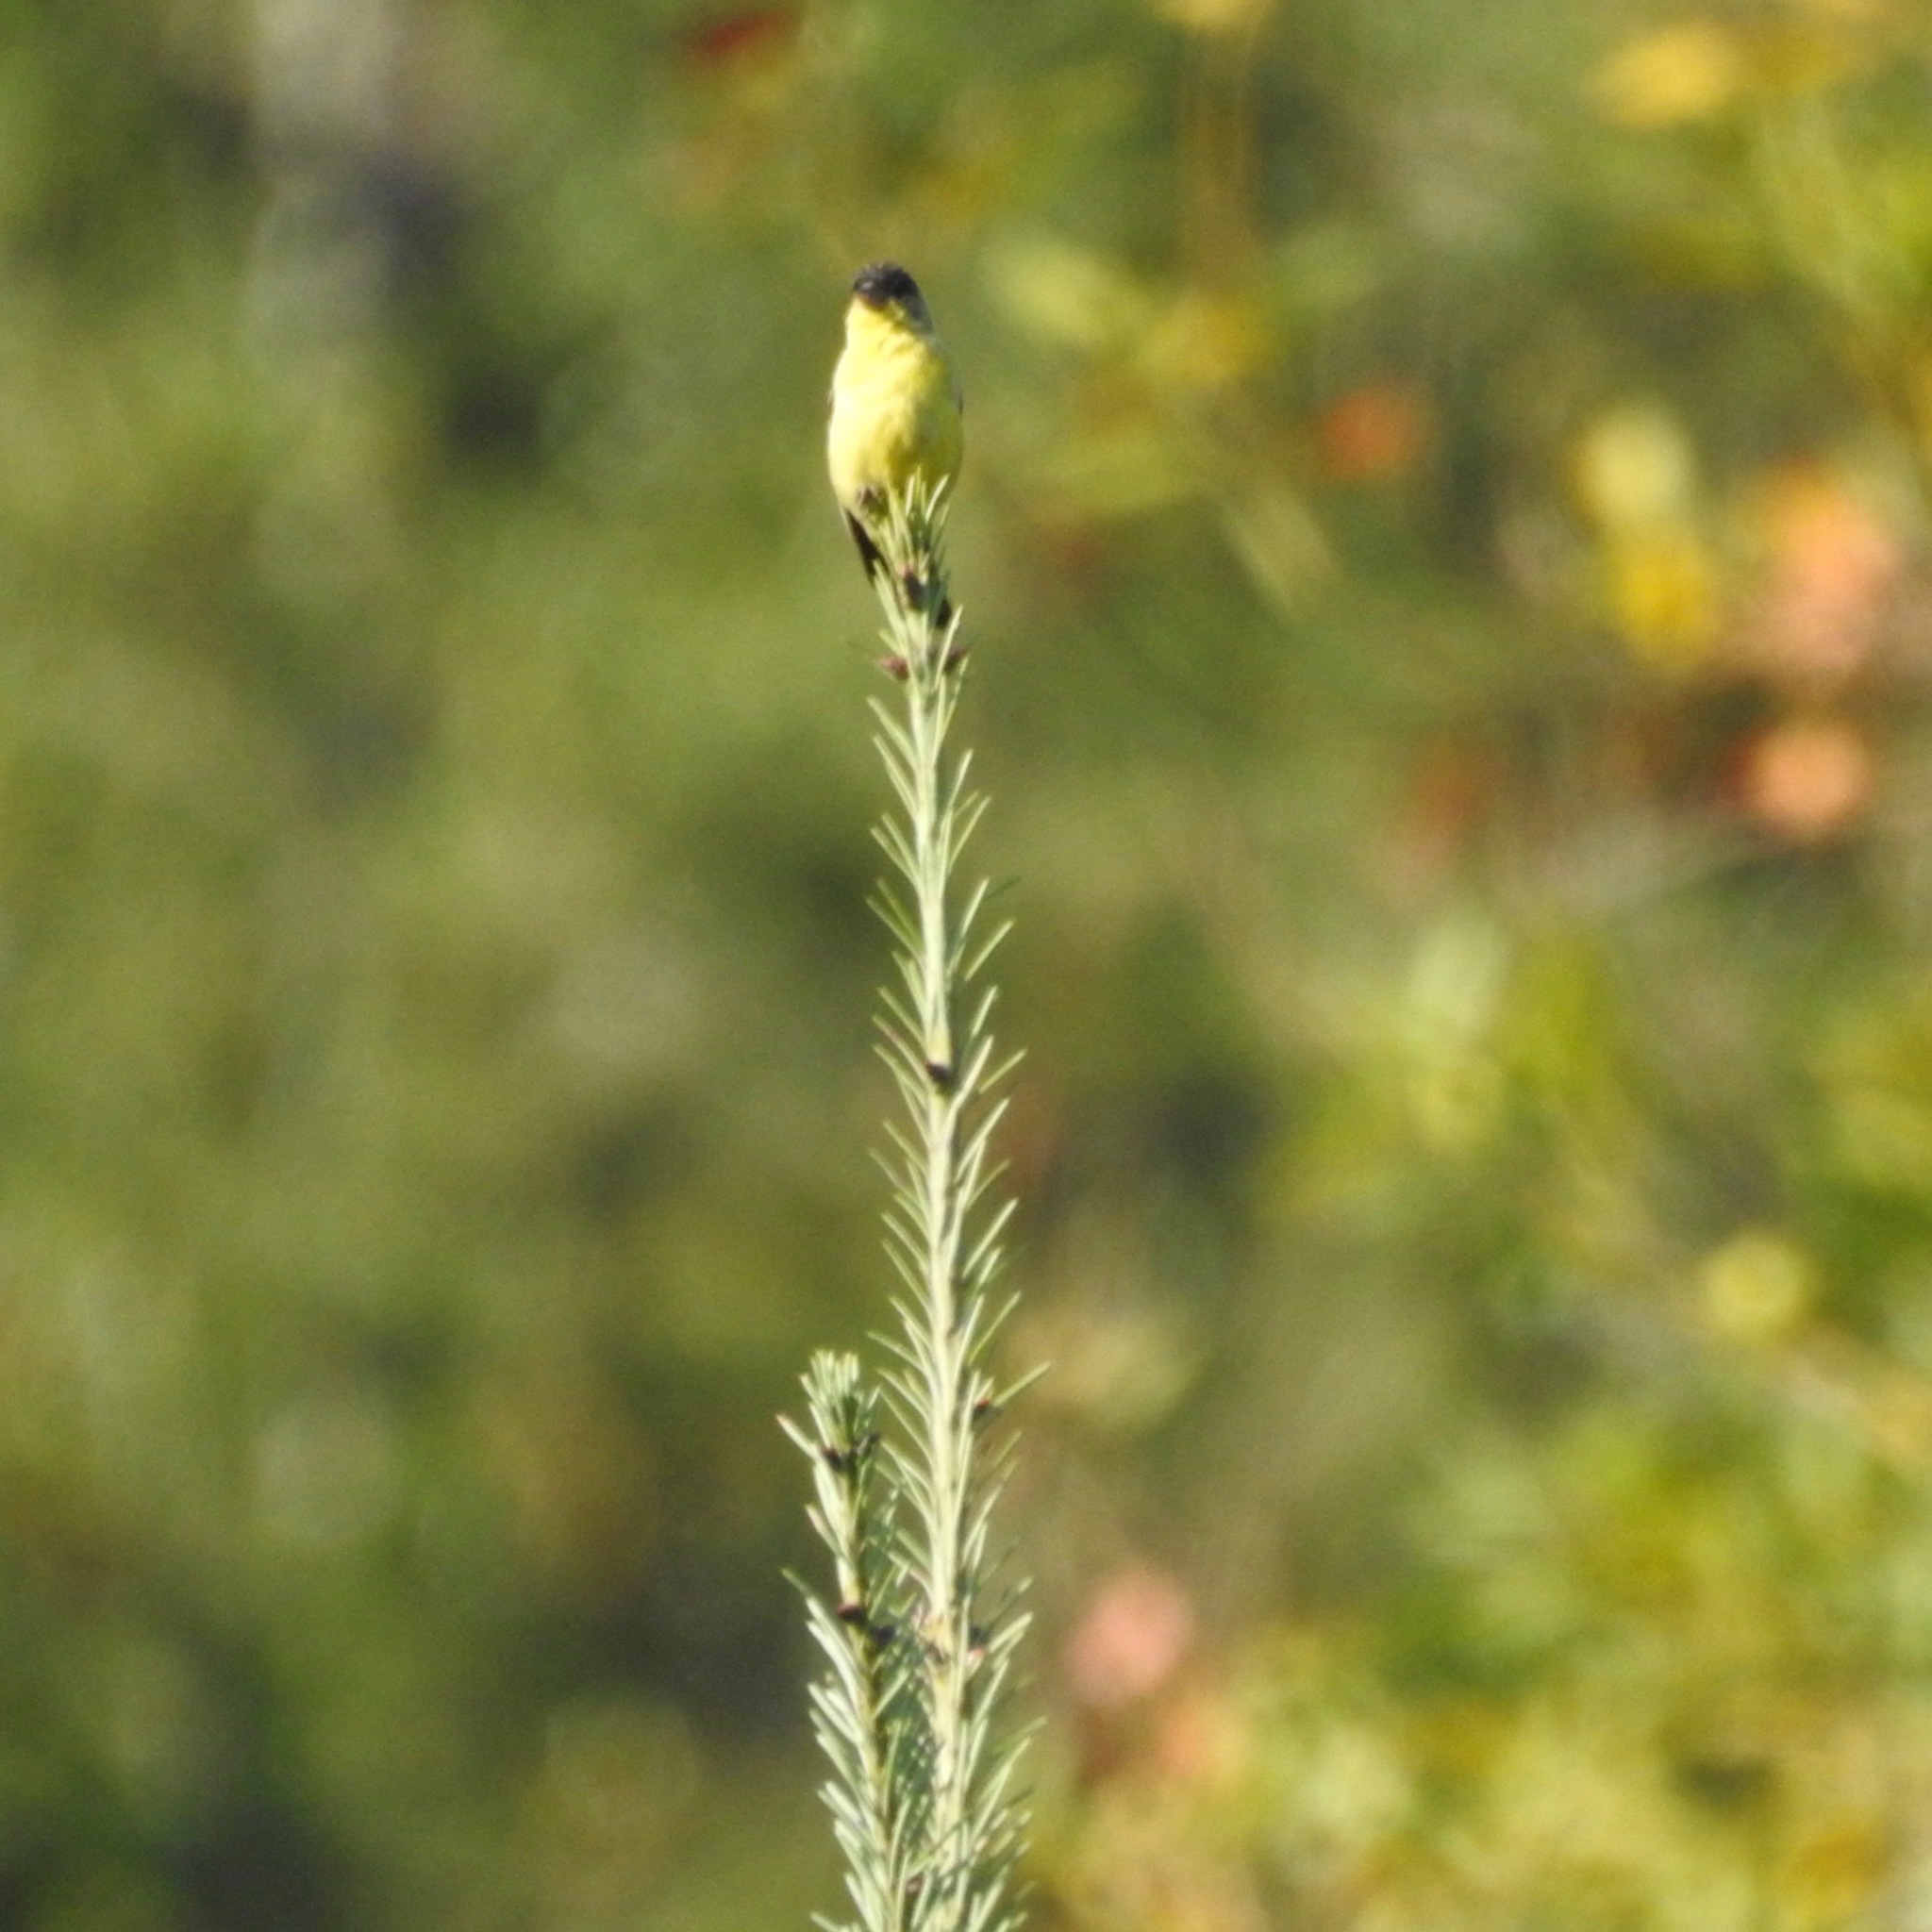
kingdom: Animalia
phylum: Chordata
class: Aves
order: Passeriformes
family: Fringillidae
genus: Spinus
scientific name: Spinus psaltria
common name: Lesser goldfinch
